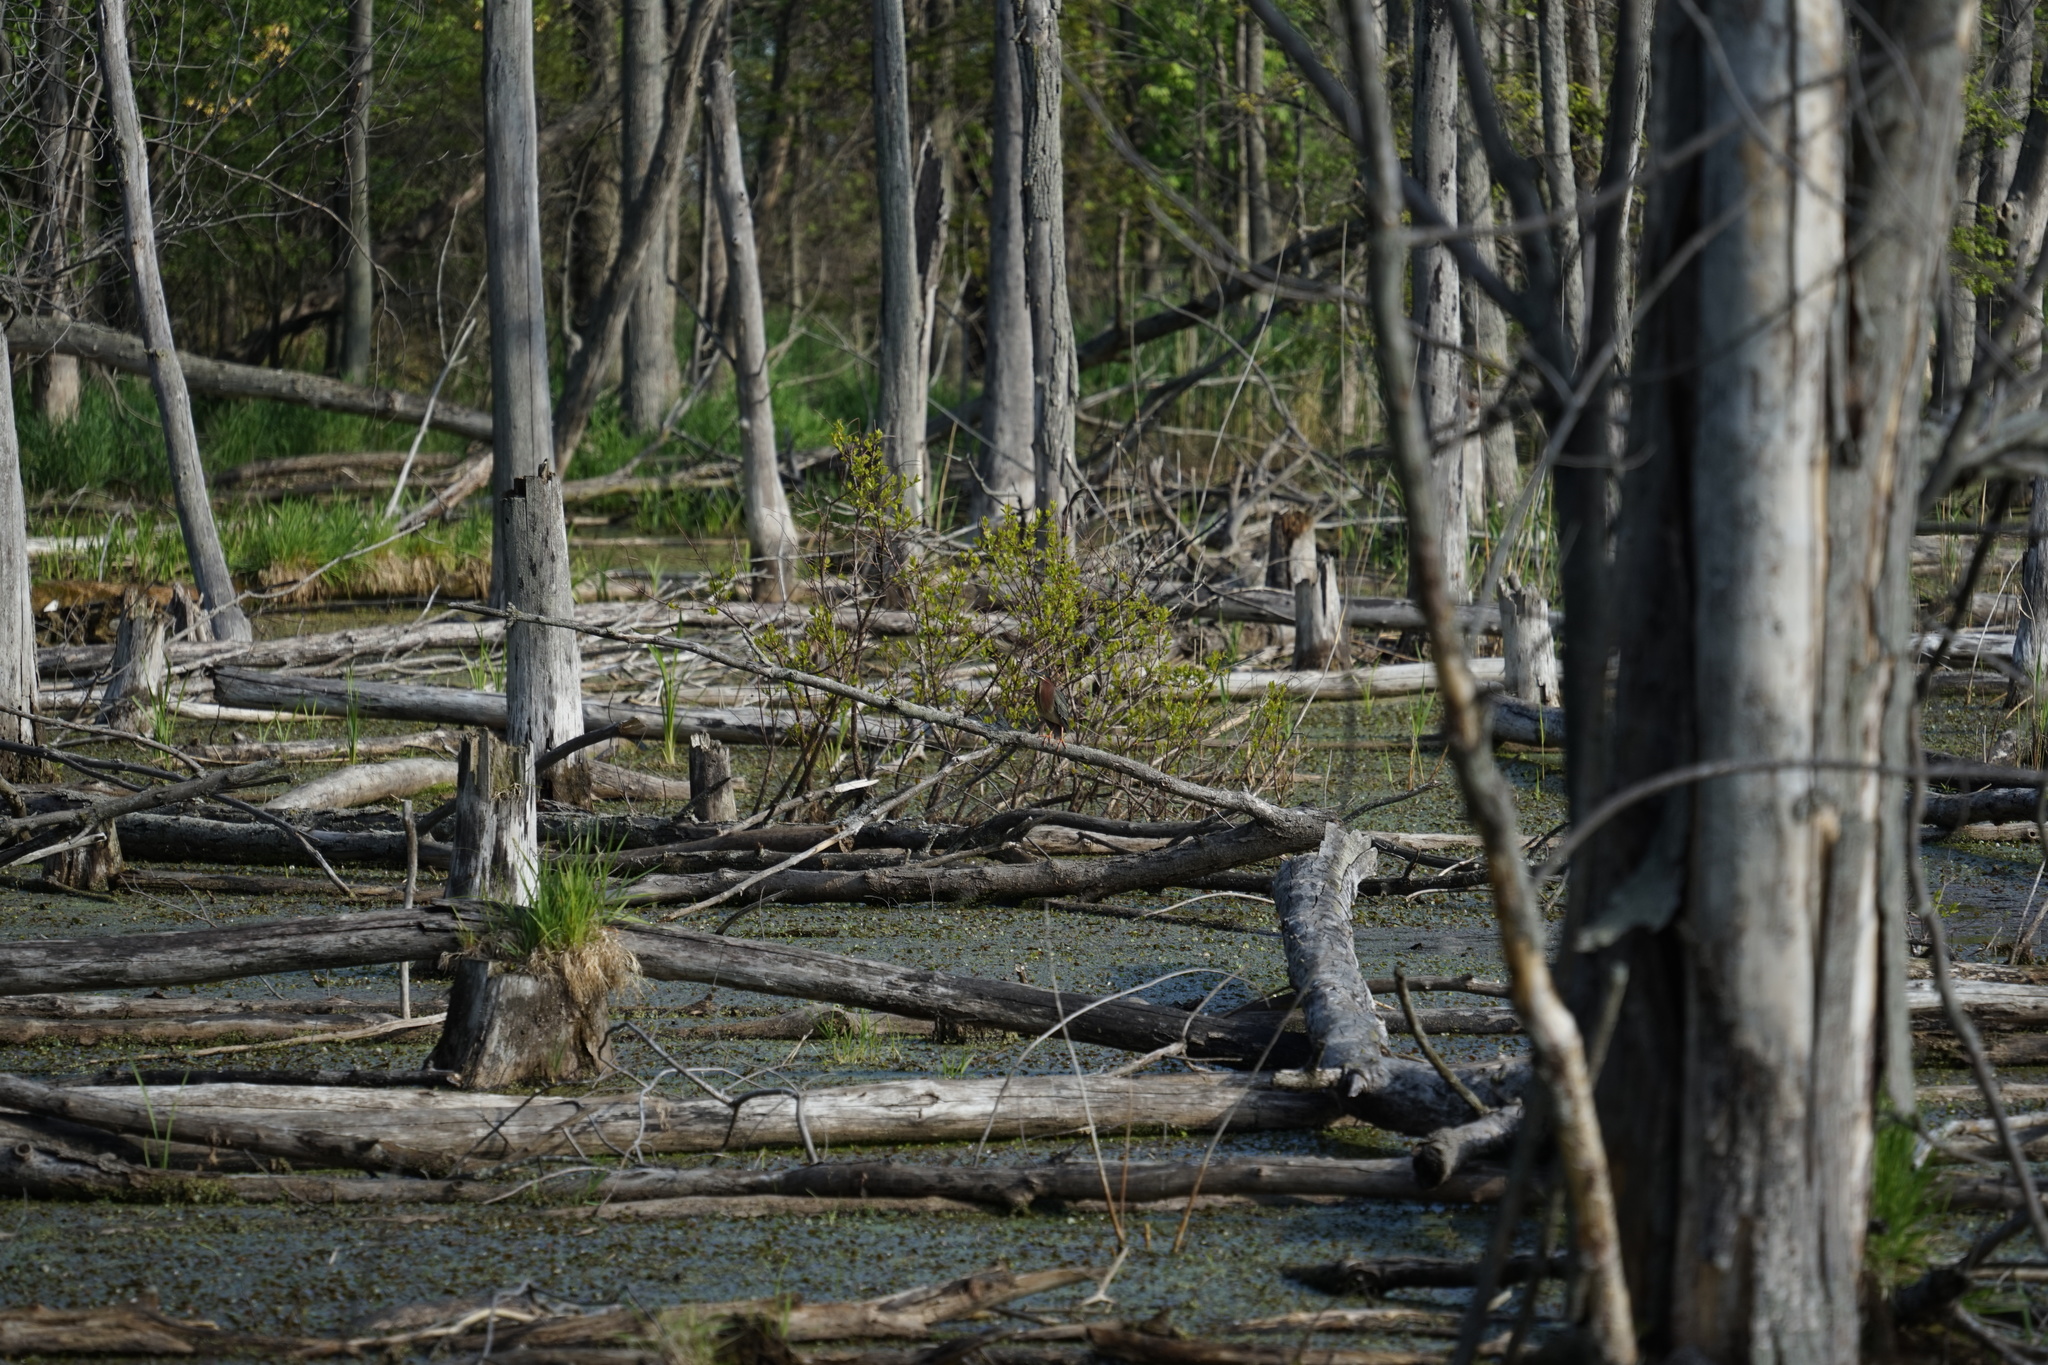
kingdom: Animalia
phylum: Chordata
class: Aves
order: Pelecaniformes
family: Ardeidae
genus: Butorides
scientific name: Butorides virescens
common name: Green heron
